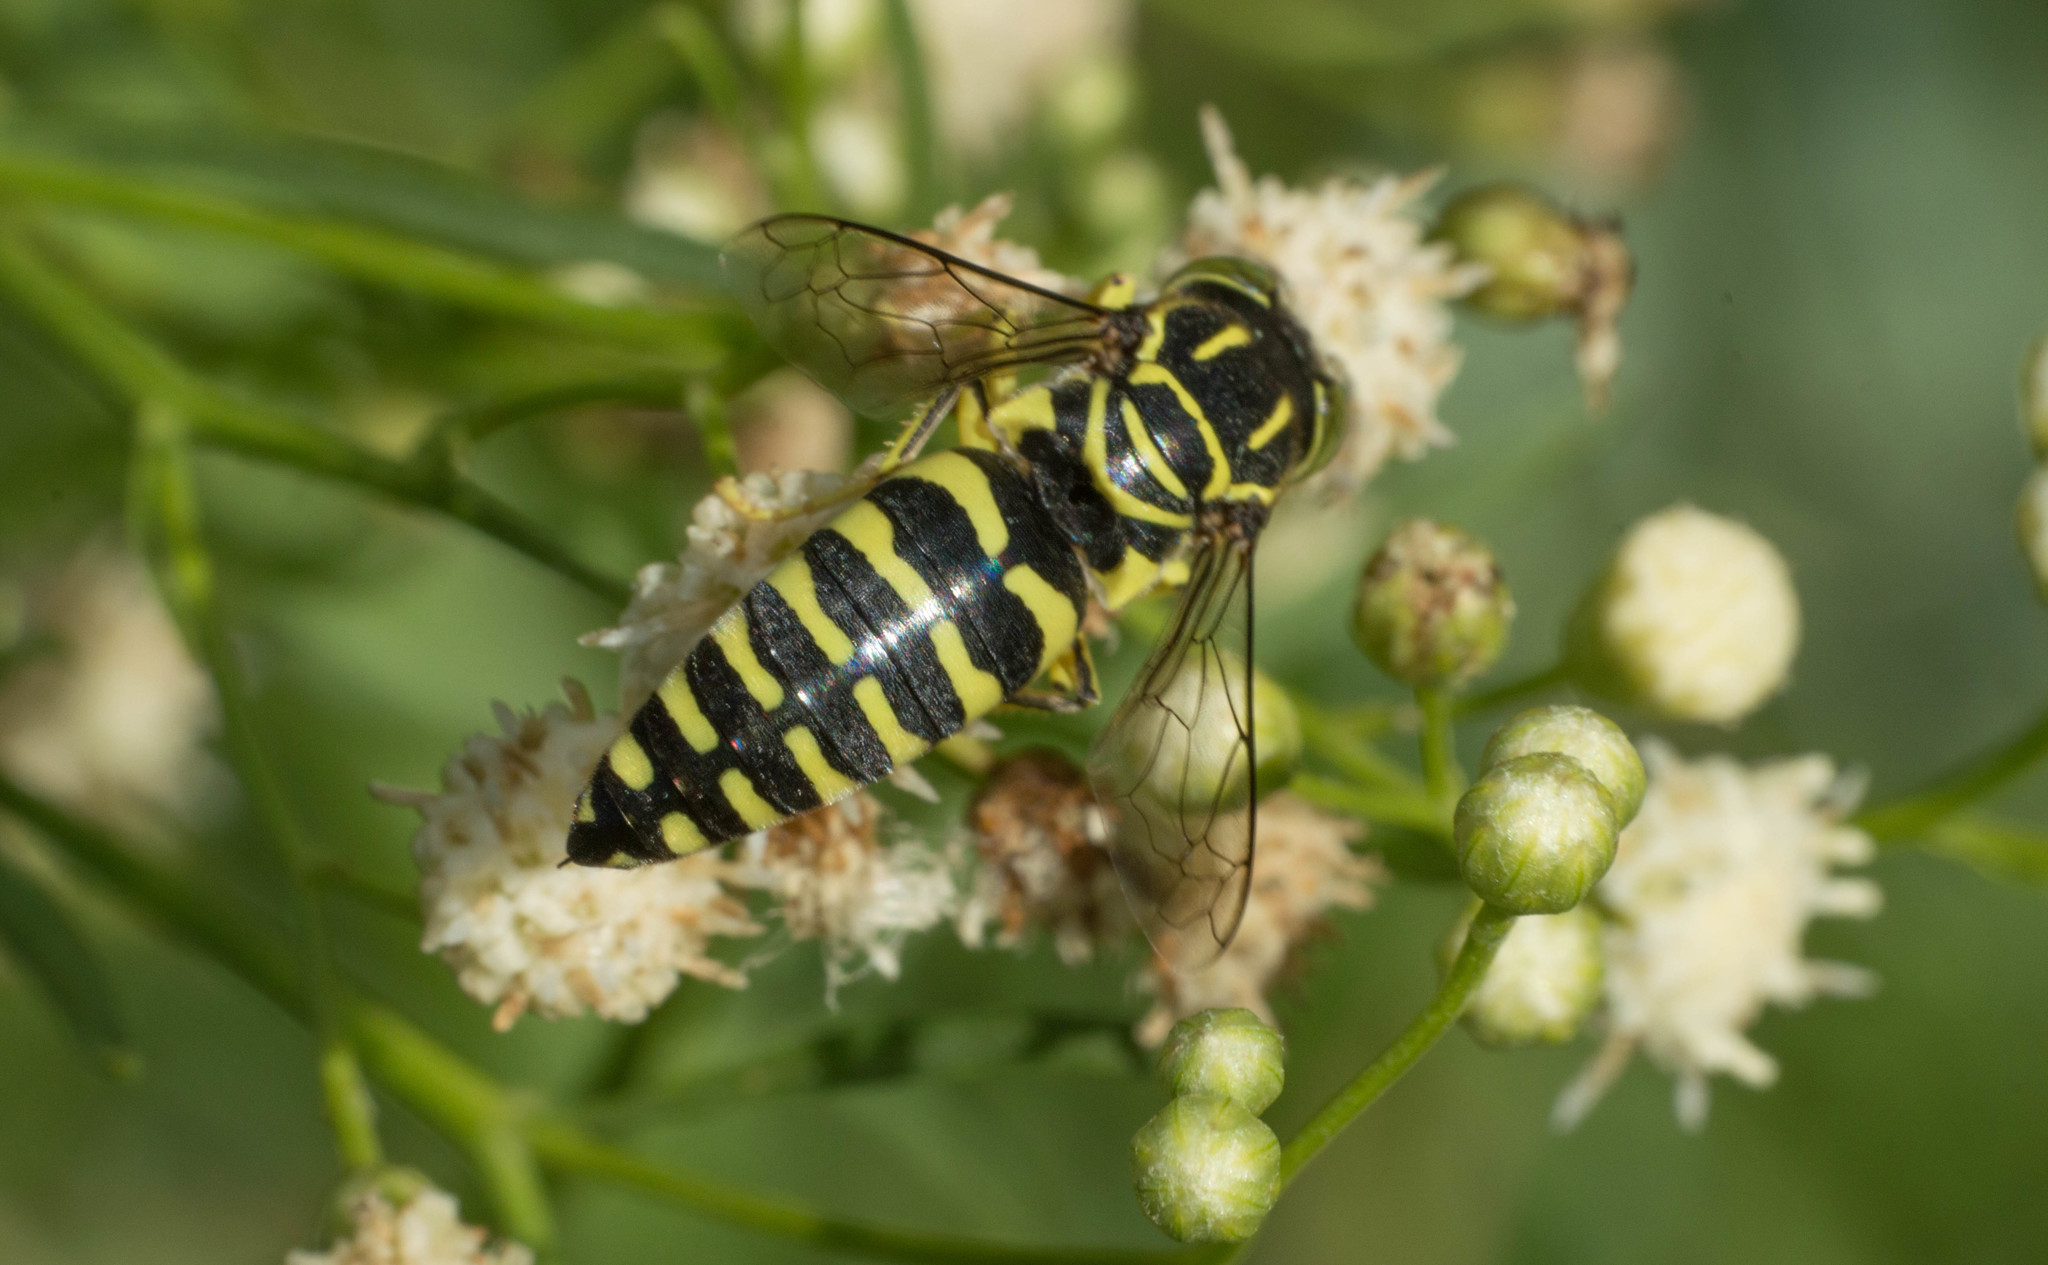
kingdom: Animalia
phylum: Arthropoda
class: Insecta
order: Hymenoptera
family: Crabronidae
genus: Bicyrtes
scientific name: Bicyrtes variegatus
